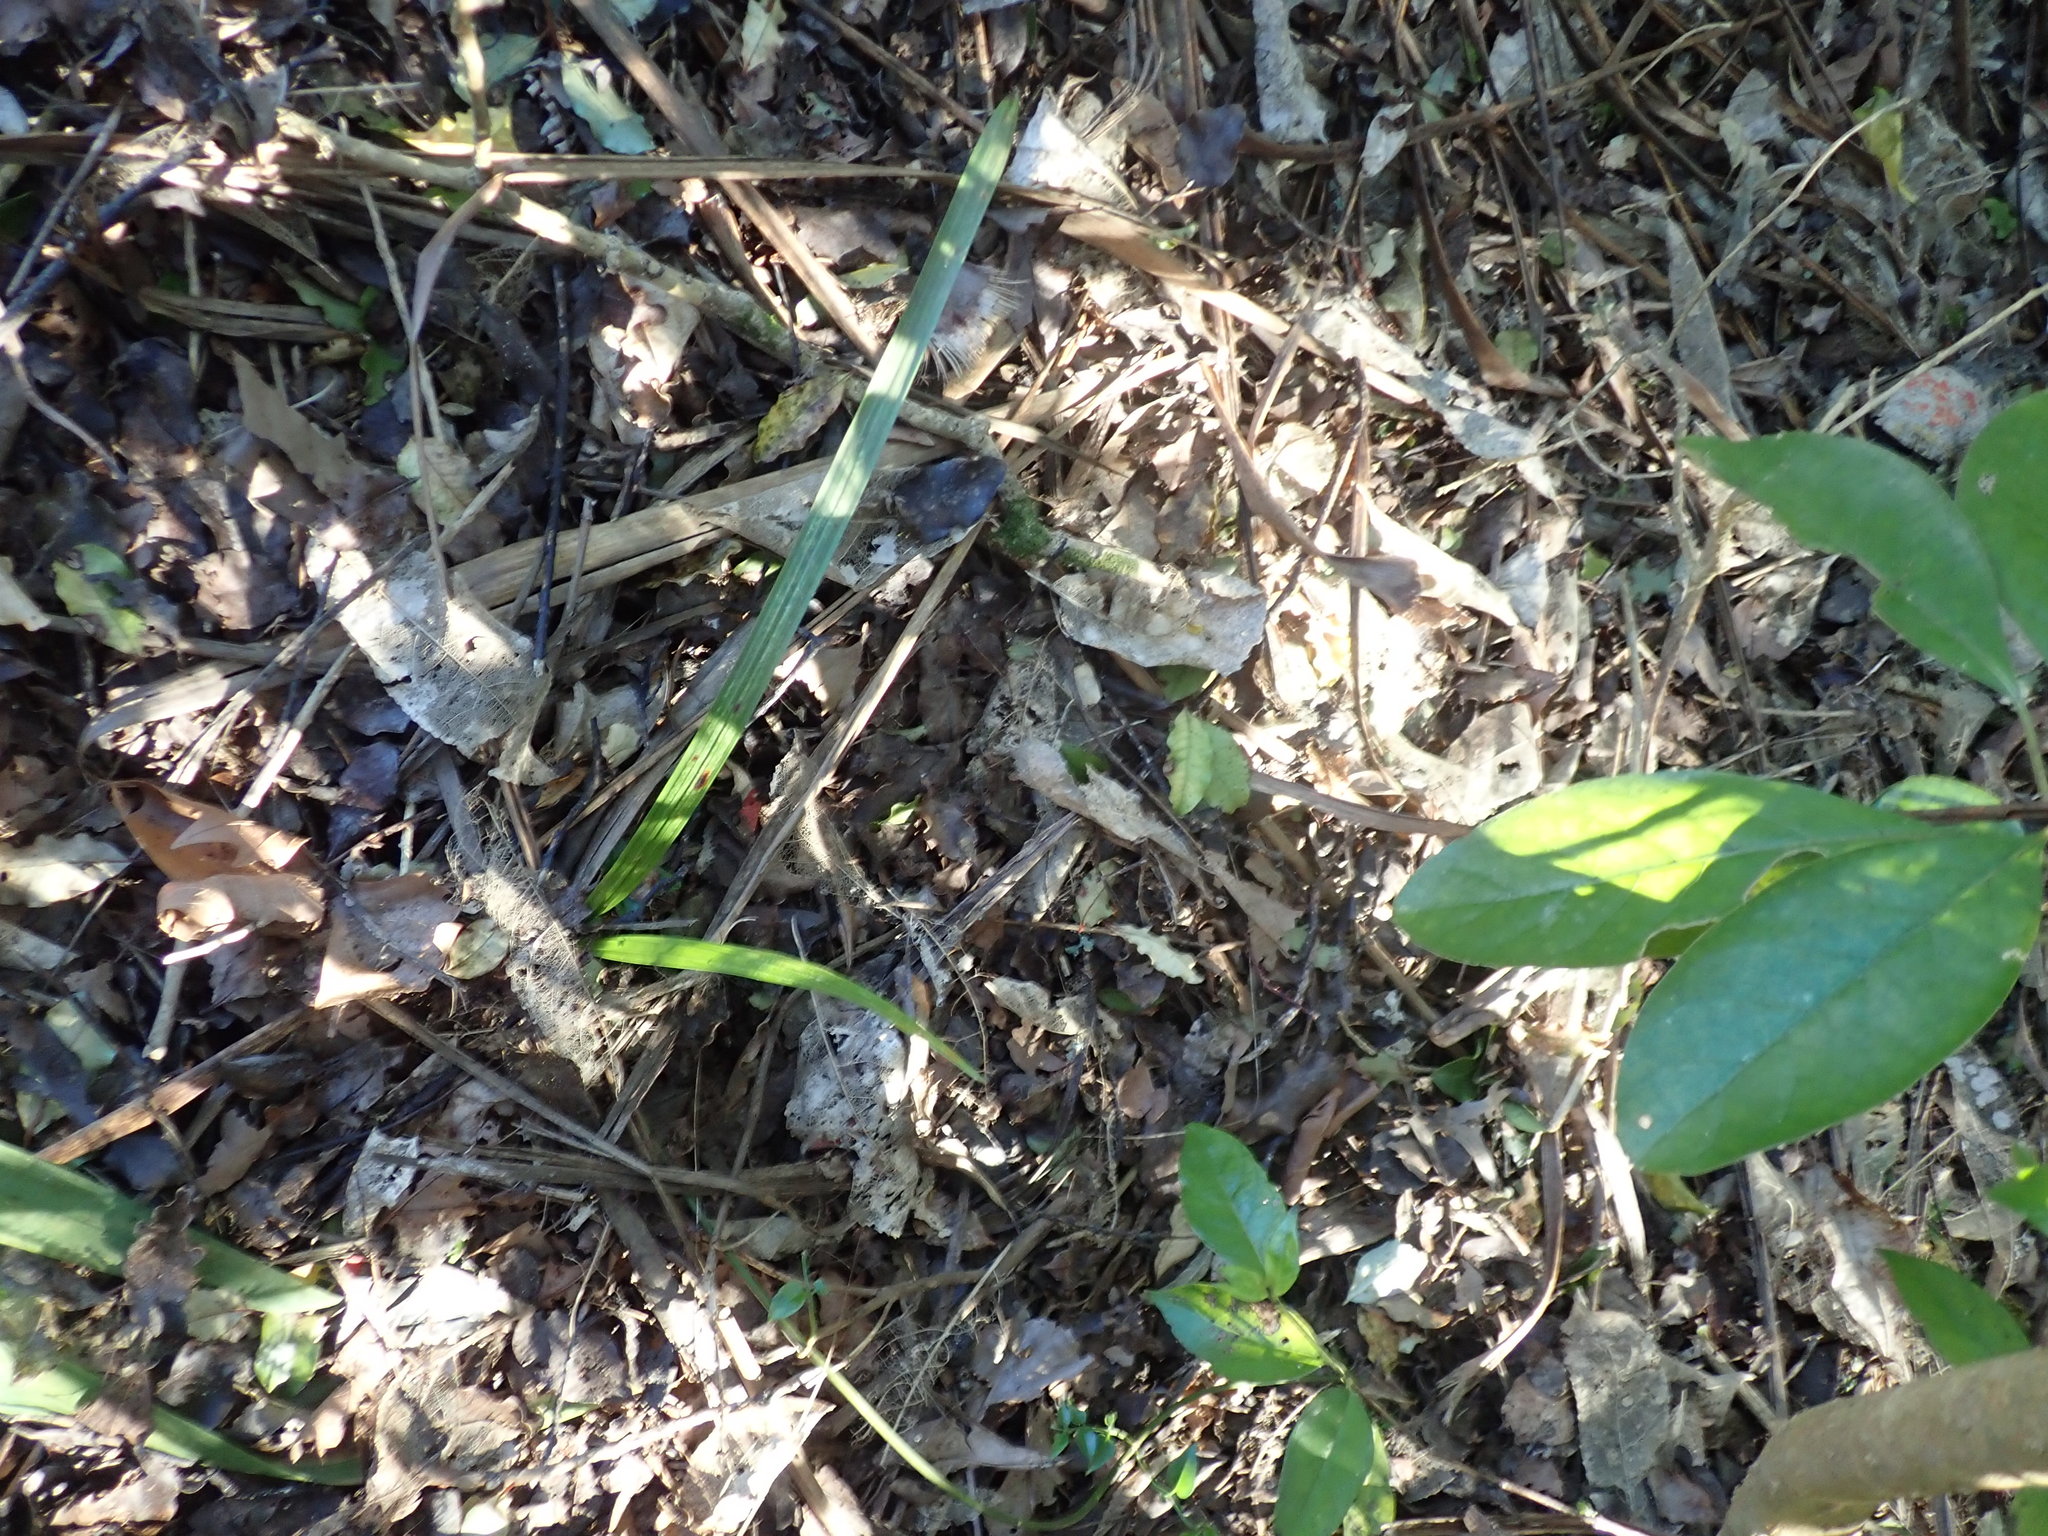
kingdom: Plantae
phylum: Tracheophyta
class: Liliopsida
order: Arecales
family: Arecaceae
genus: Phoenix
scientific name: Phoenix canariensis
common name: Canary island date palm
